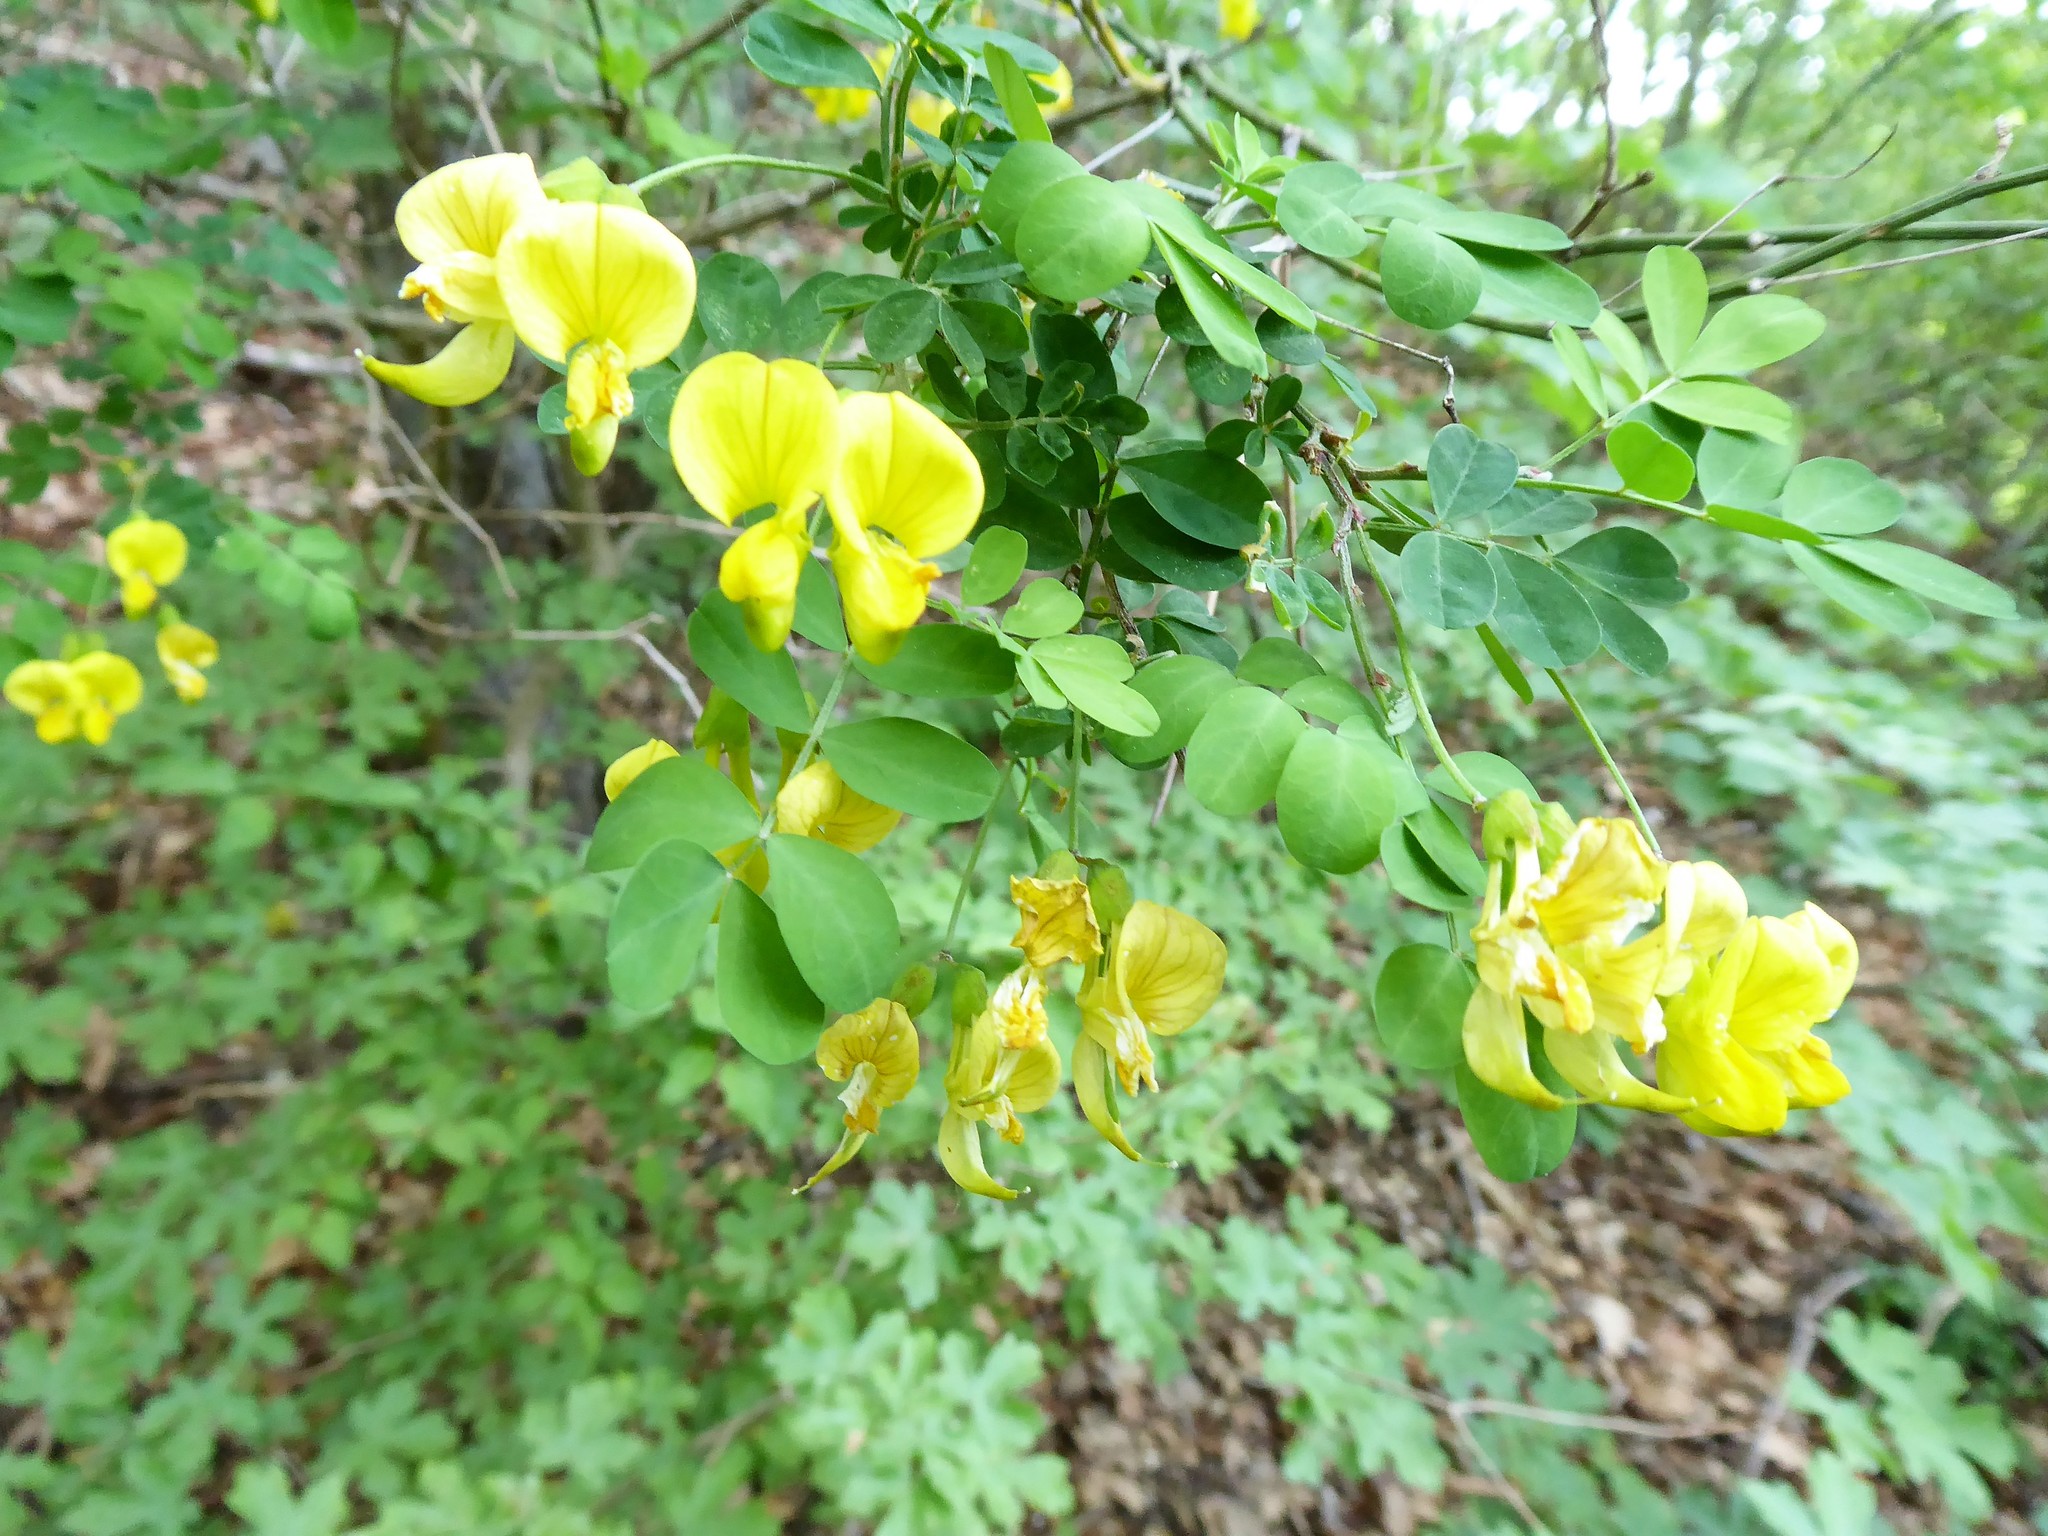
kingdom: Plantae
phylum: Tracheophyta
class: Magnoliopsida
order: Fabales
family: Fabaceae
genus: Hippocrepis
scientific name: Hippocrepis emerus
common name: Scorpion senna
